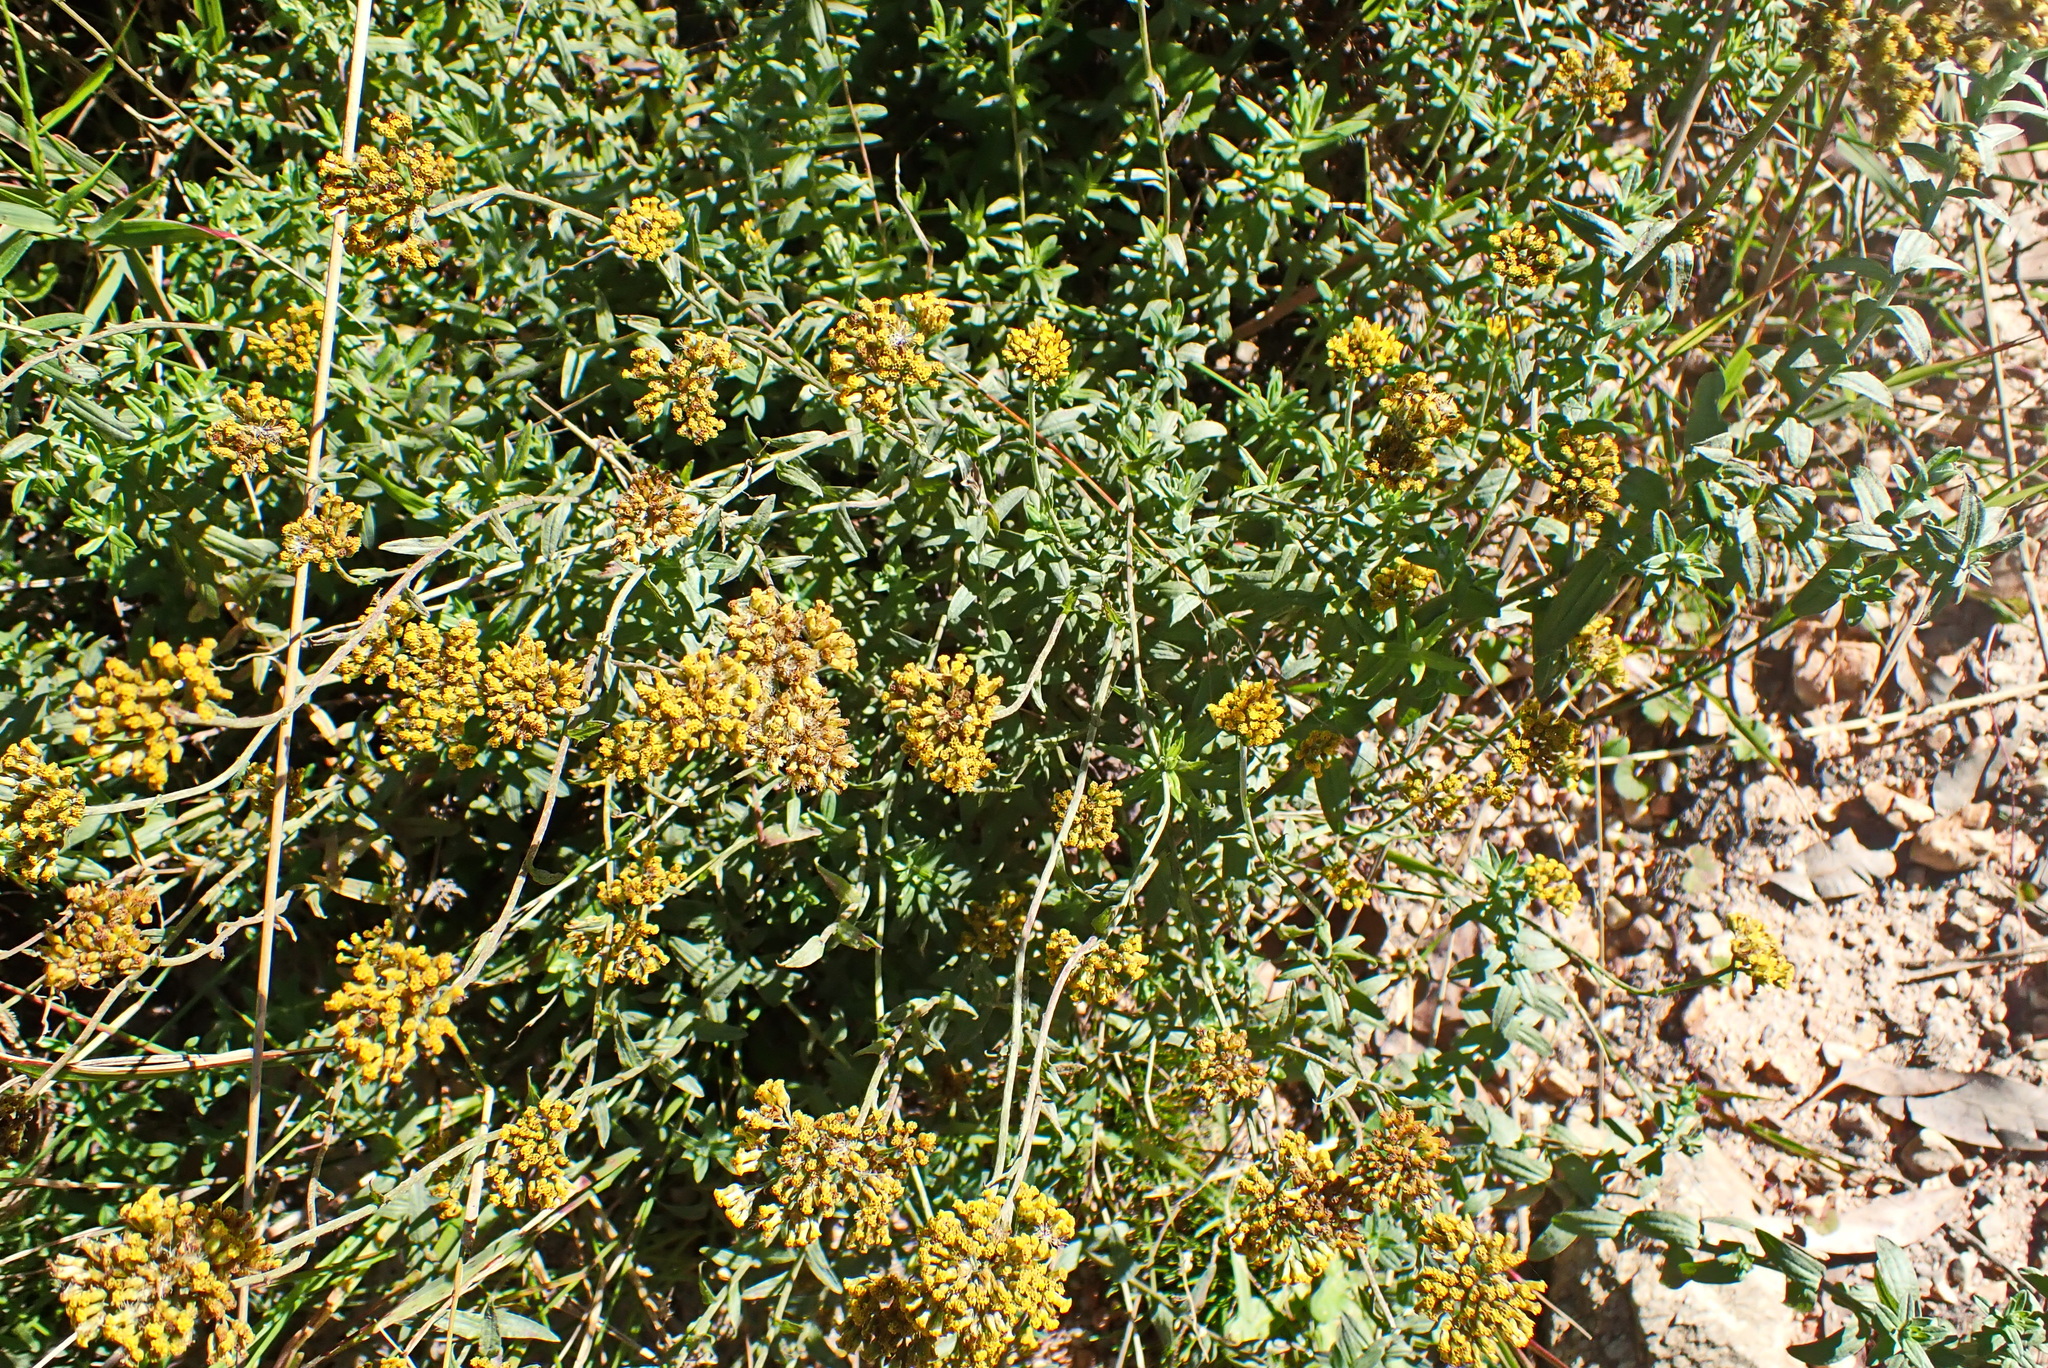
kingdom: Plantae
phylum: Tracheophyta
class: Magnoliopsida
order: Asterales
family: Asteraceae
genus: Helichrysum
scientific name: Helichrysum cymosum
